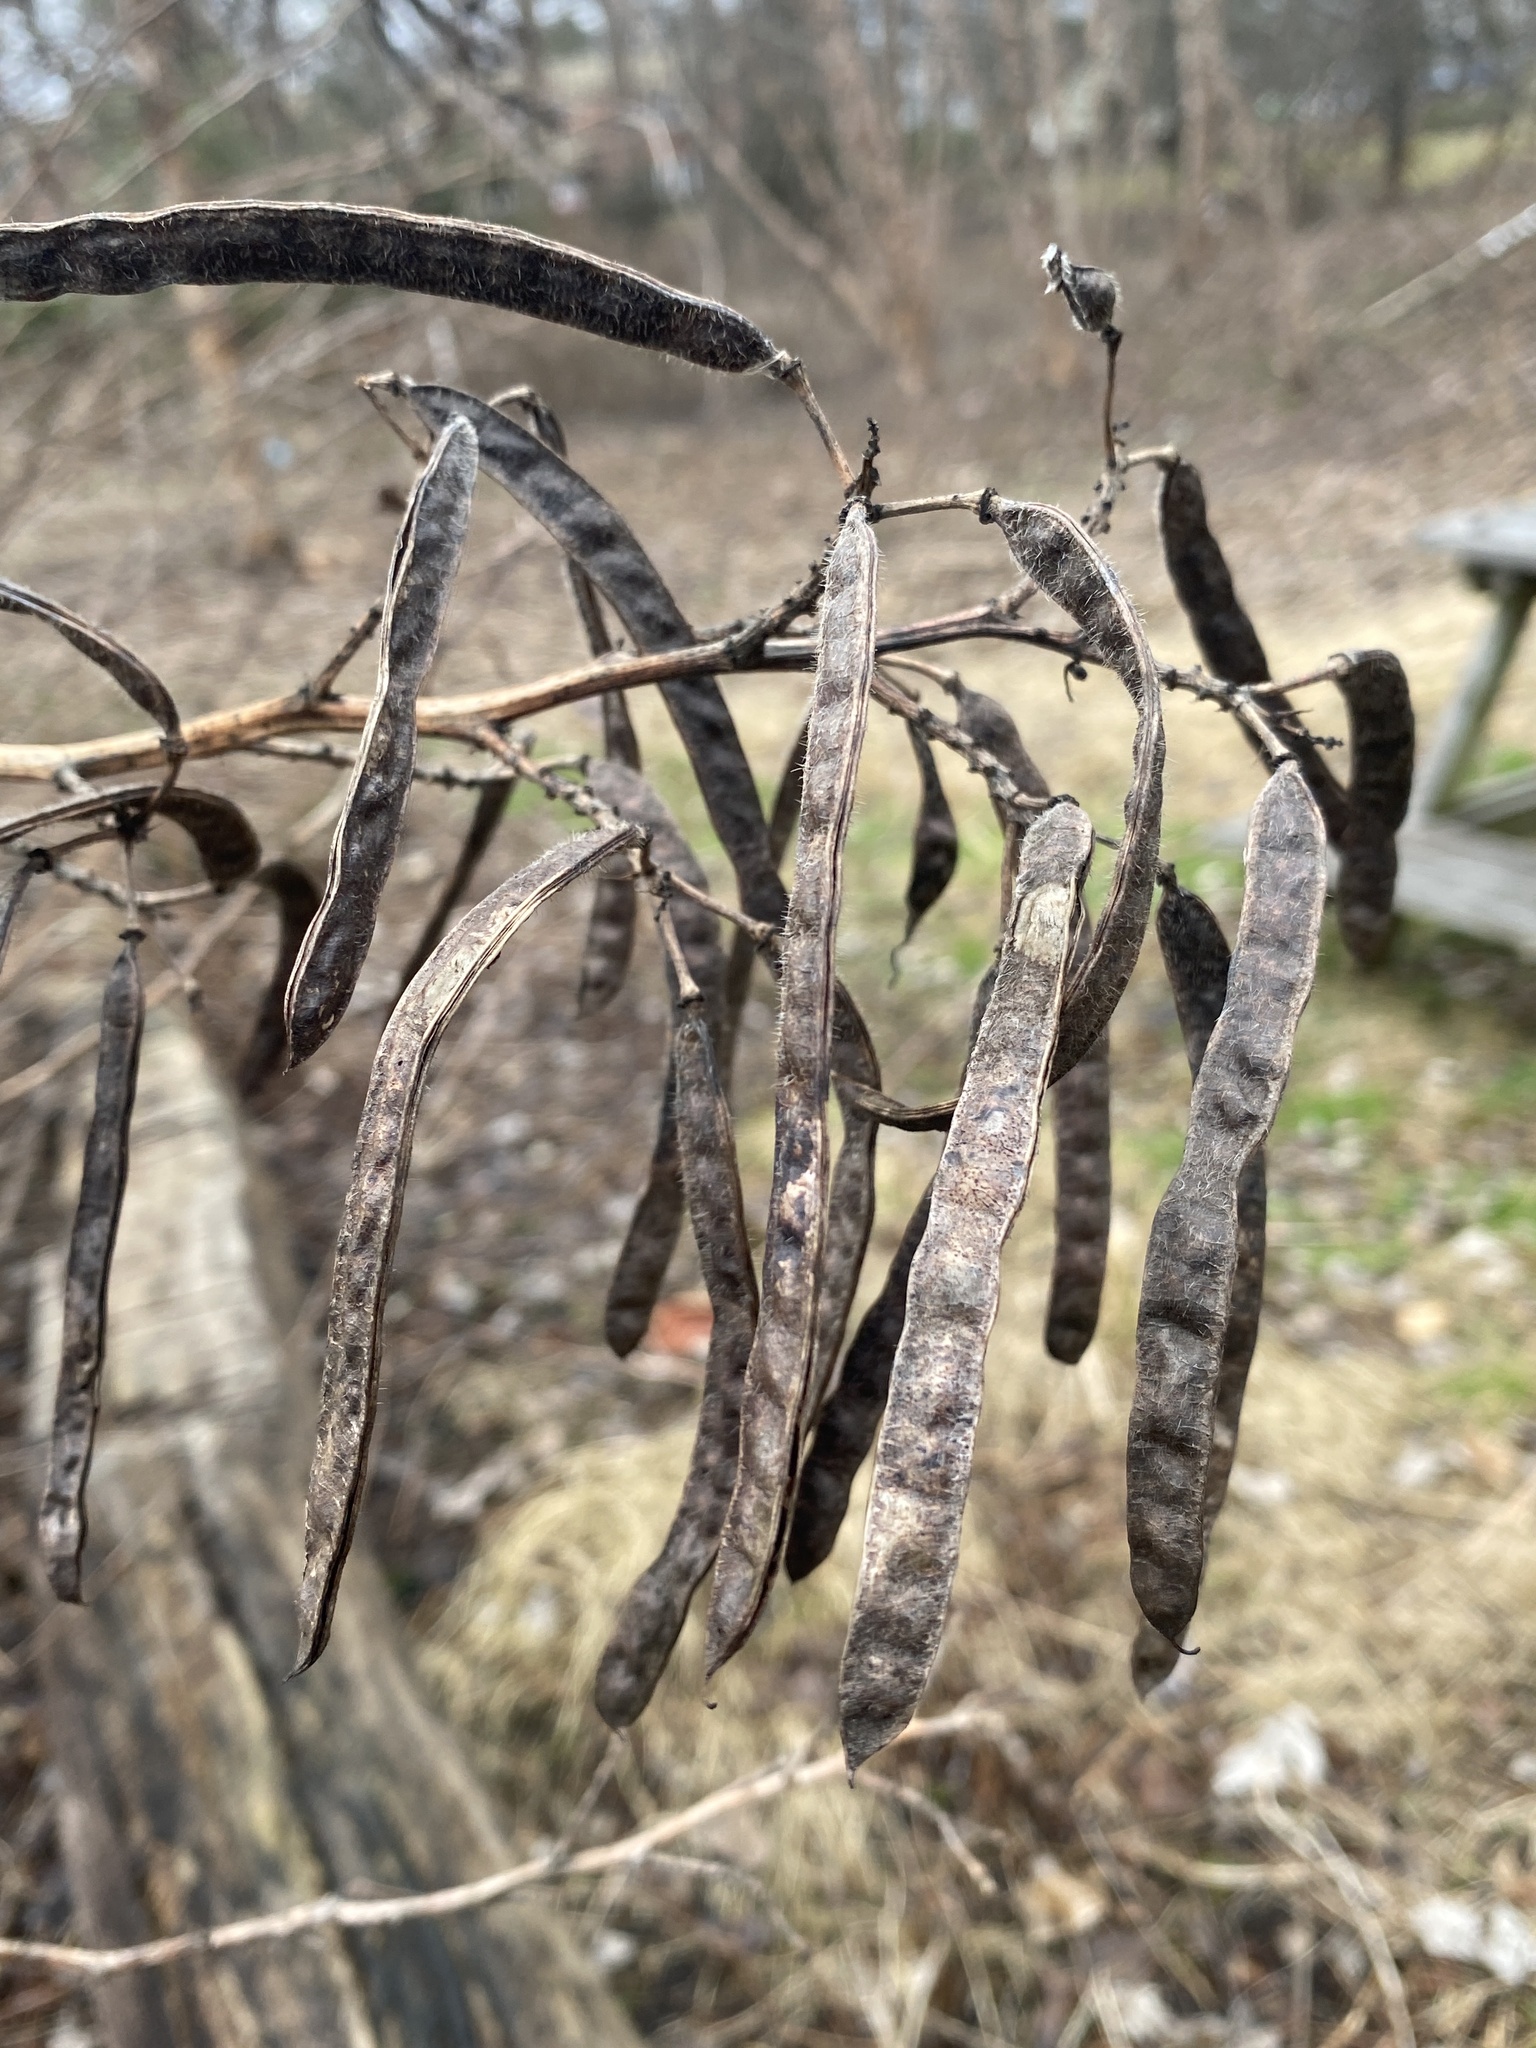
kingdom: Plantae
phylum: Tracheophyta
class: Magnoliopsida
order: Fabales
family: Fabaceae
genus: Senna
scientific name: Senna hebecarpa
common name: Wild senna
